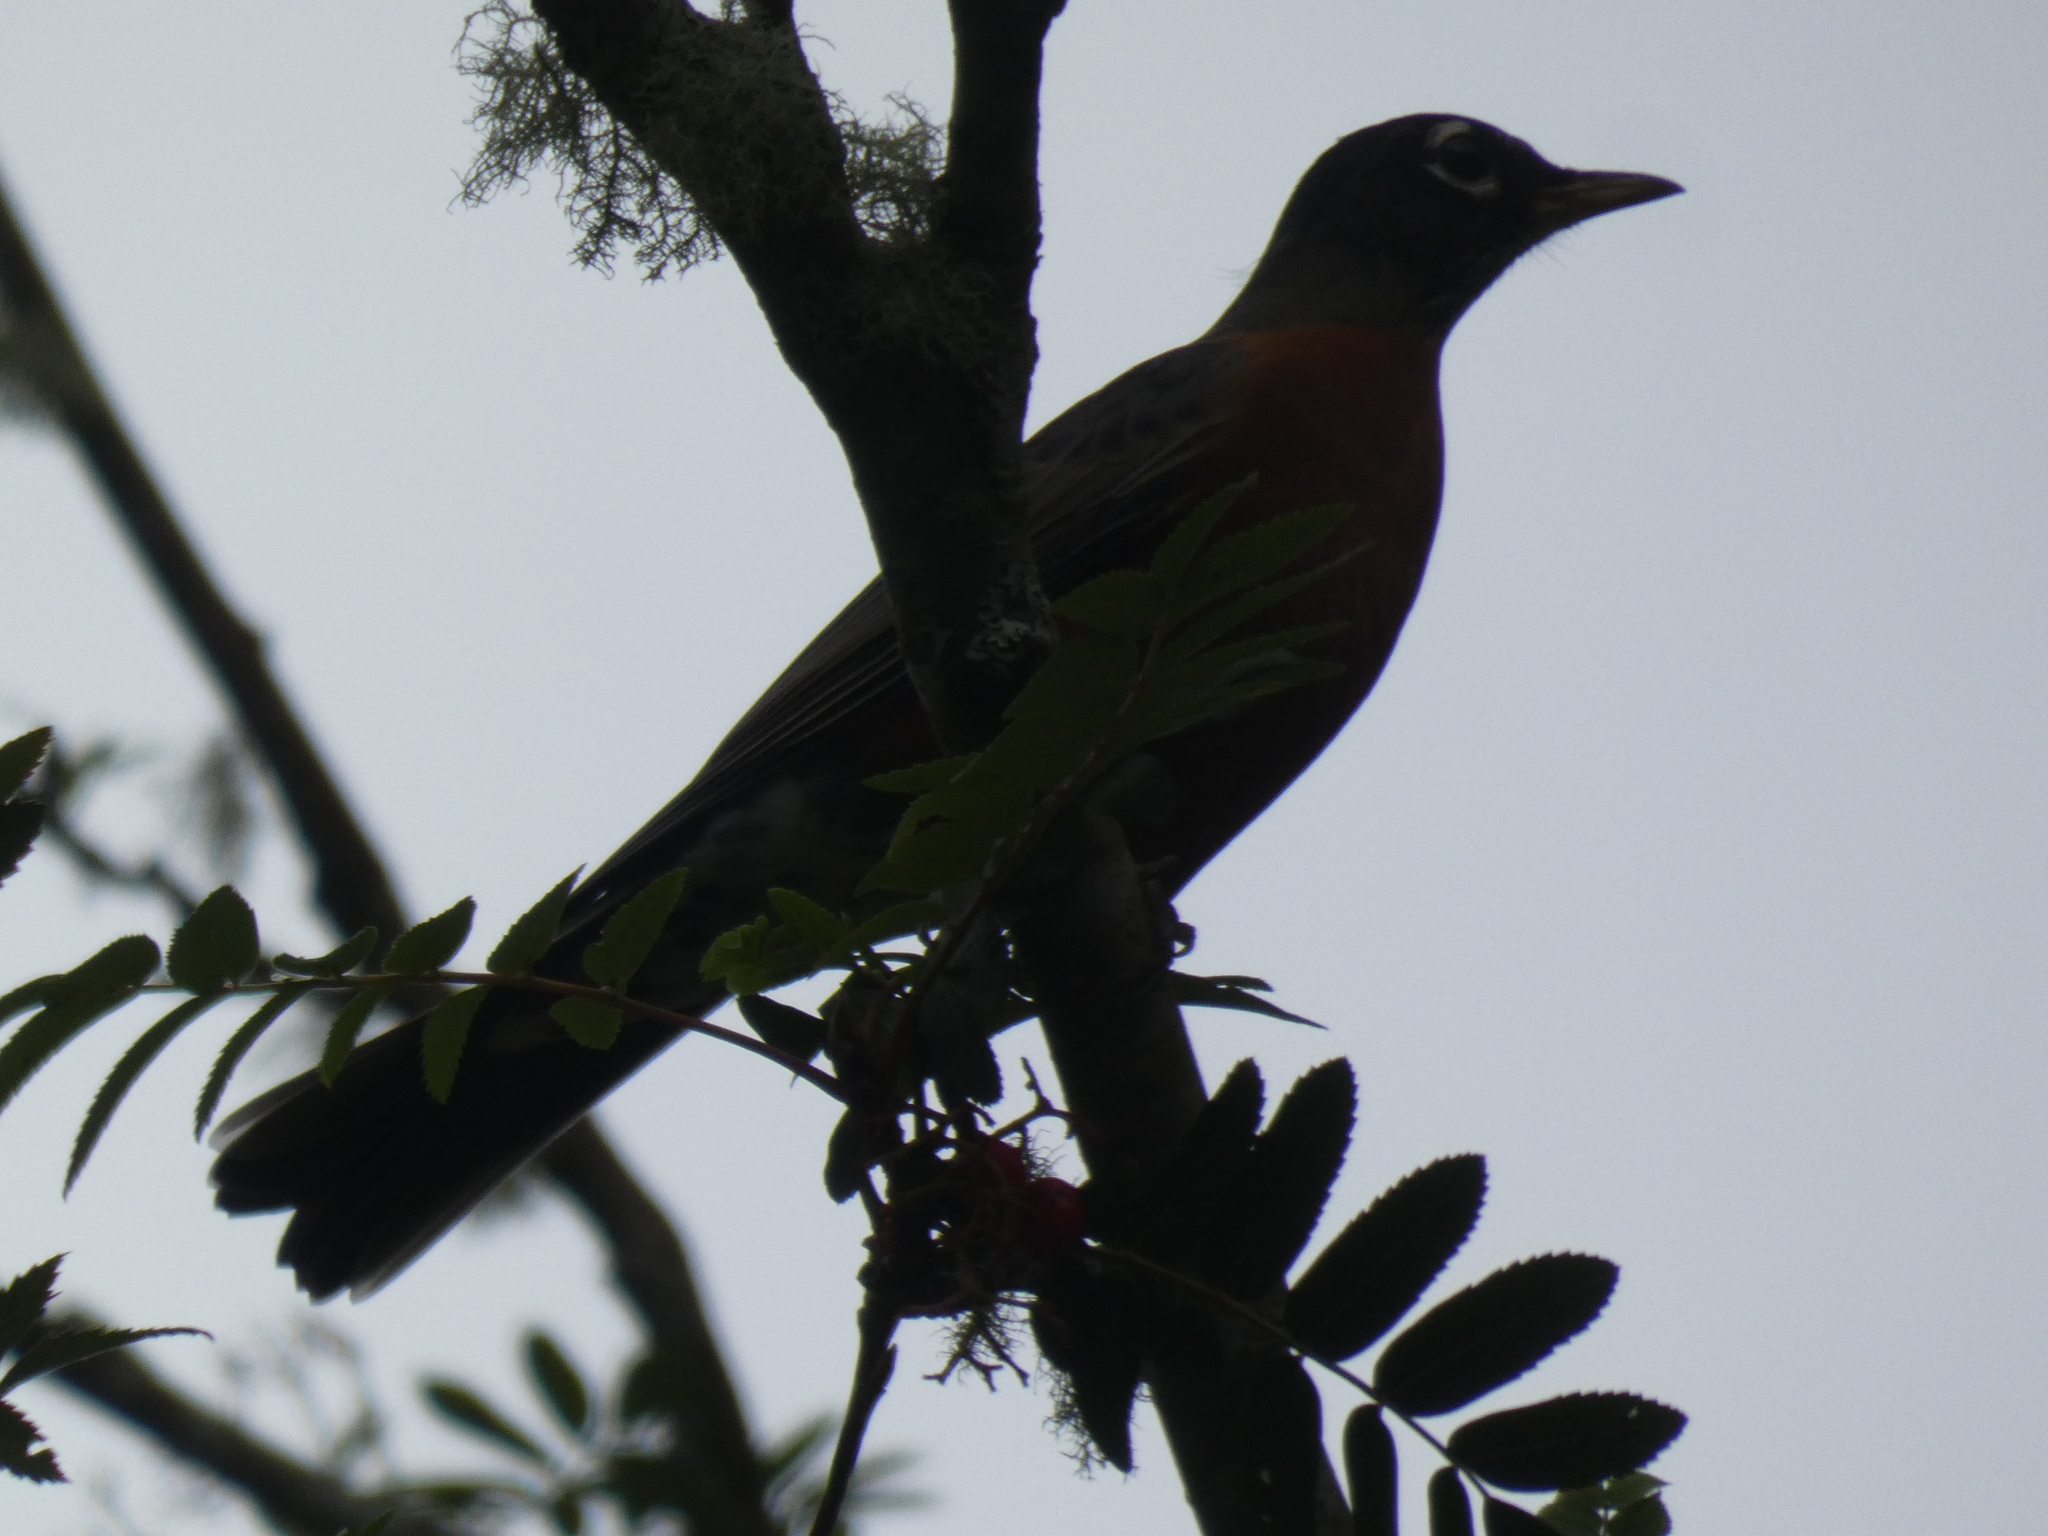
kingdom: Animalia
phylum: Chordata
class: Aves
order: Passeriformes
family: Turdidae
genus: Turdus
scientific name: Turdus migratorius
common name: American robin
